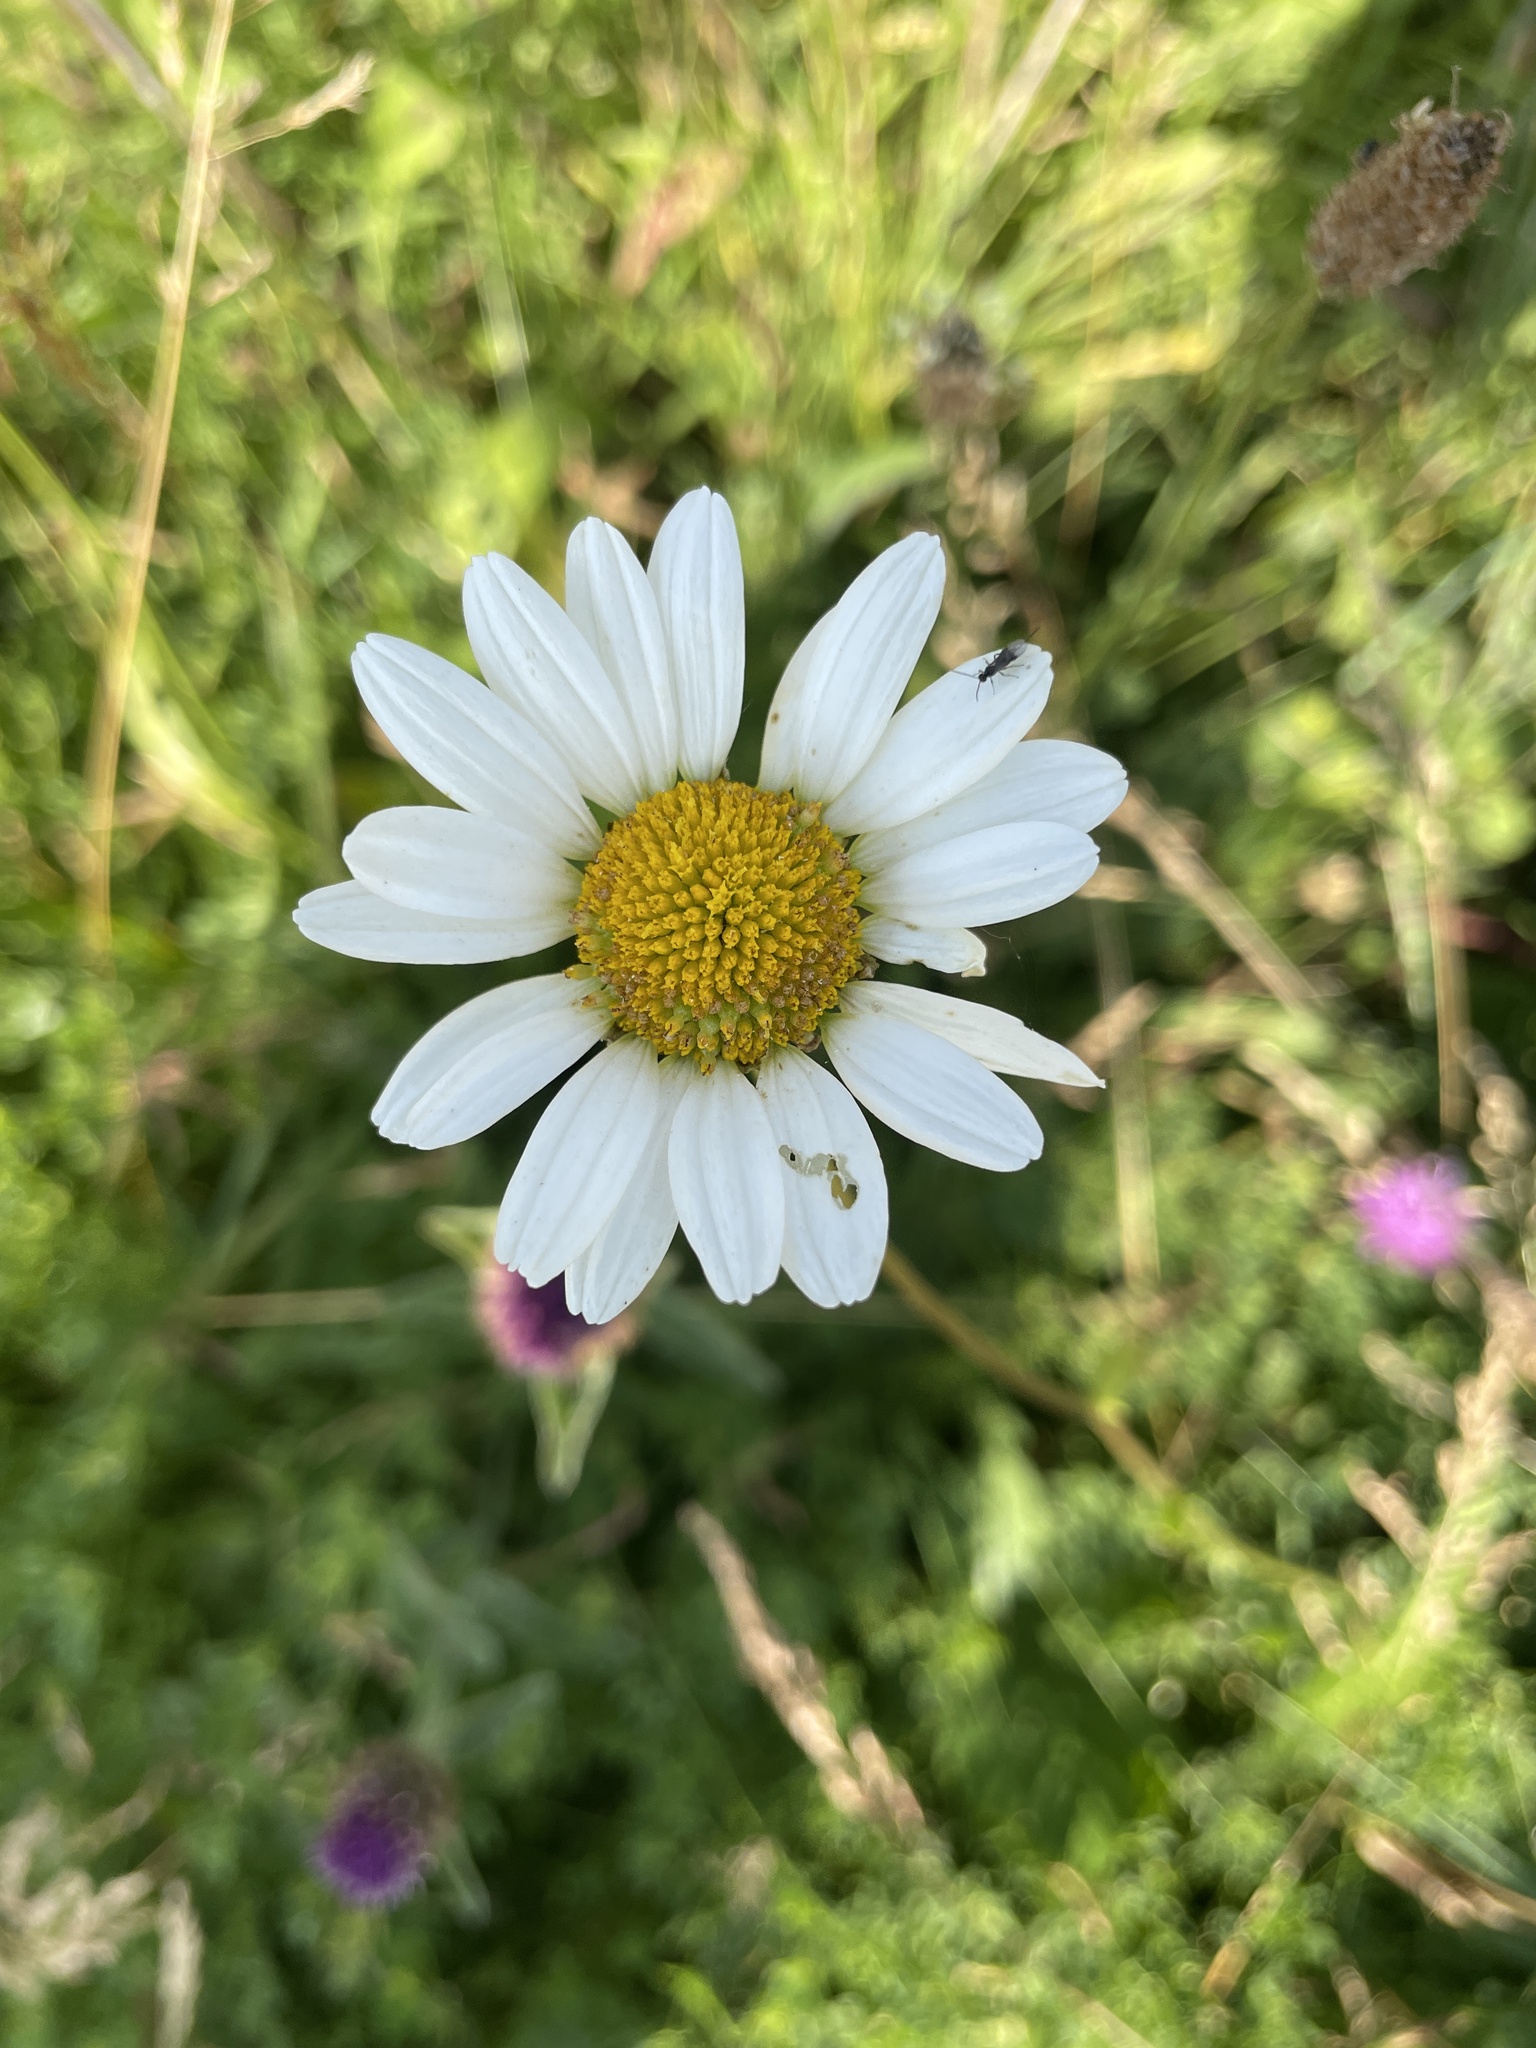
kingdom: Plantae
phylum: Tracheophyta
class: Magnoliopsida
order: Asterales
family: Asteraceae
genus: Leucanthemum
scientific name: Leucanthemum vulgare
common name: Oxeye daisy
